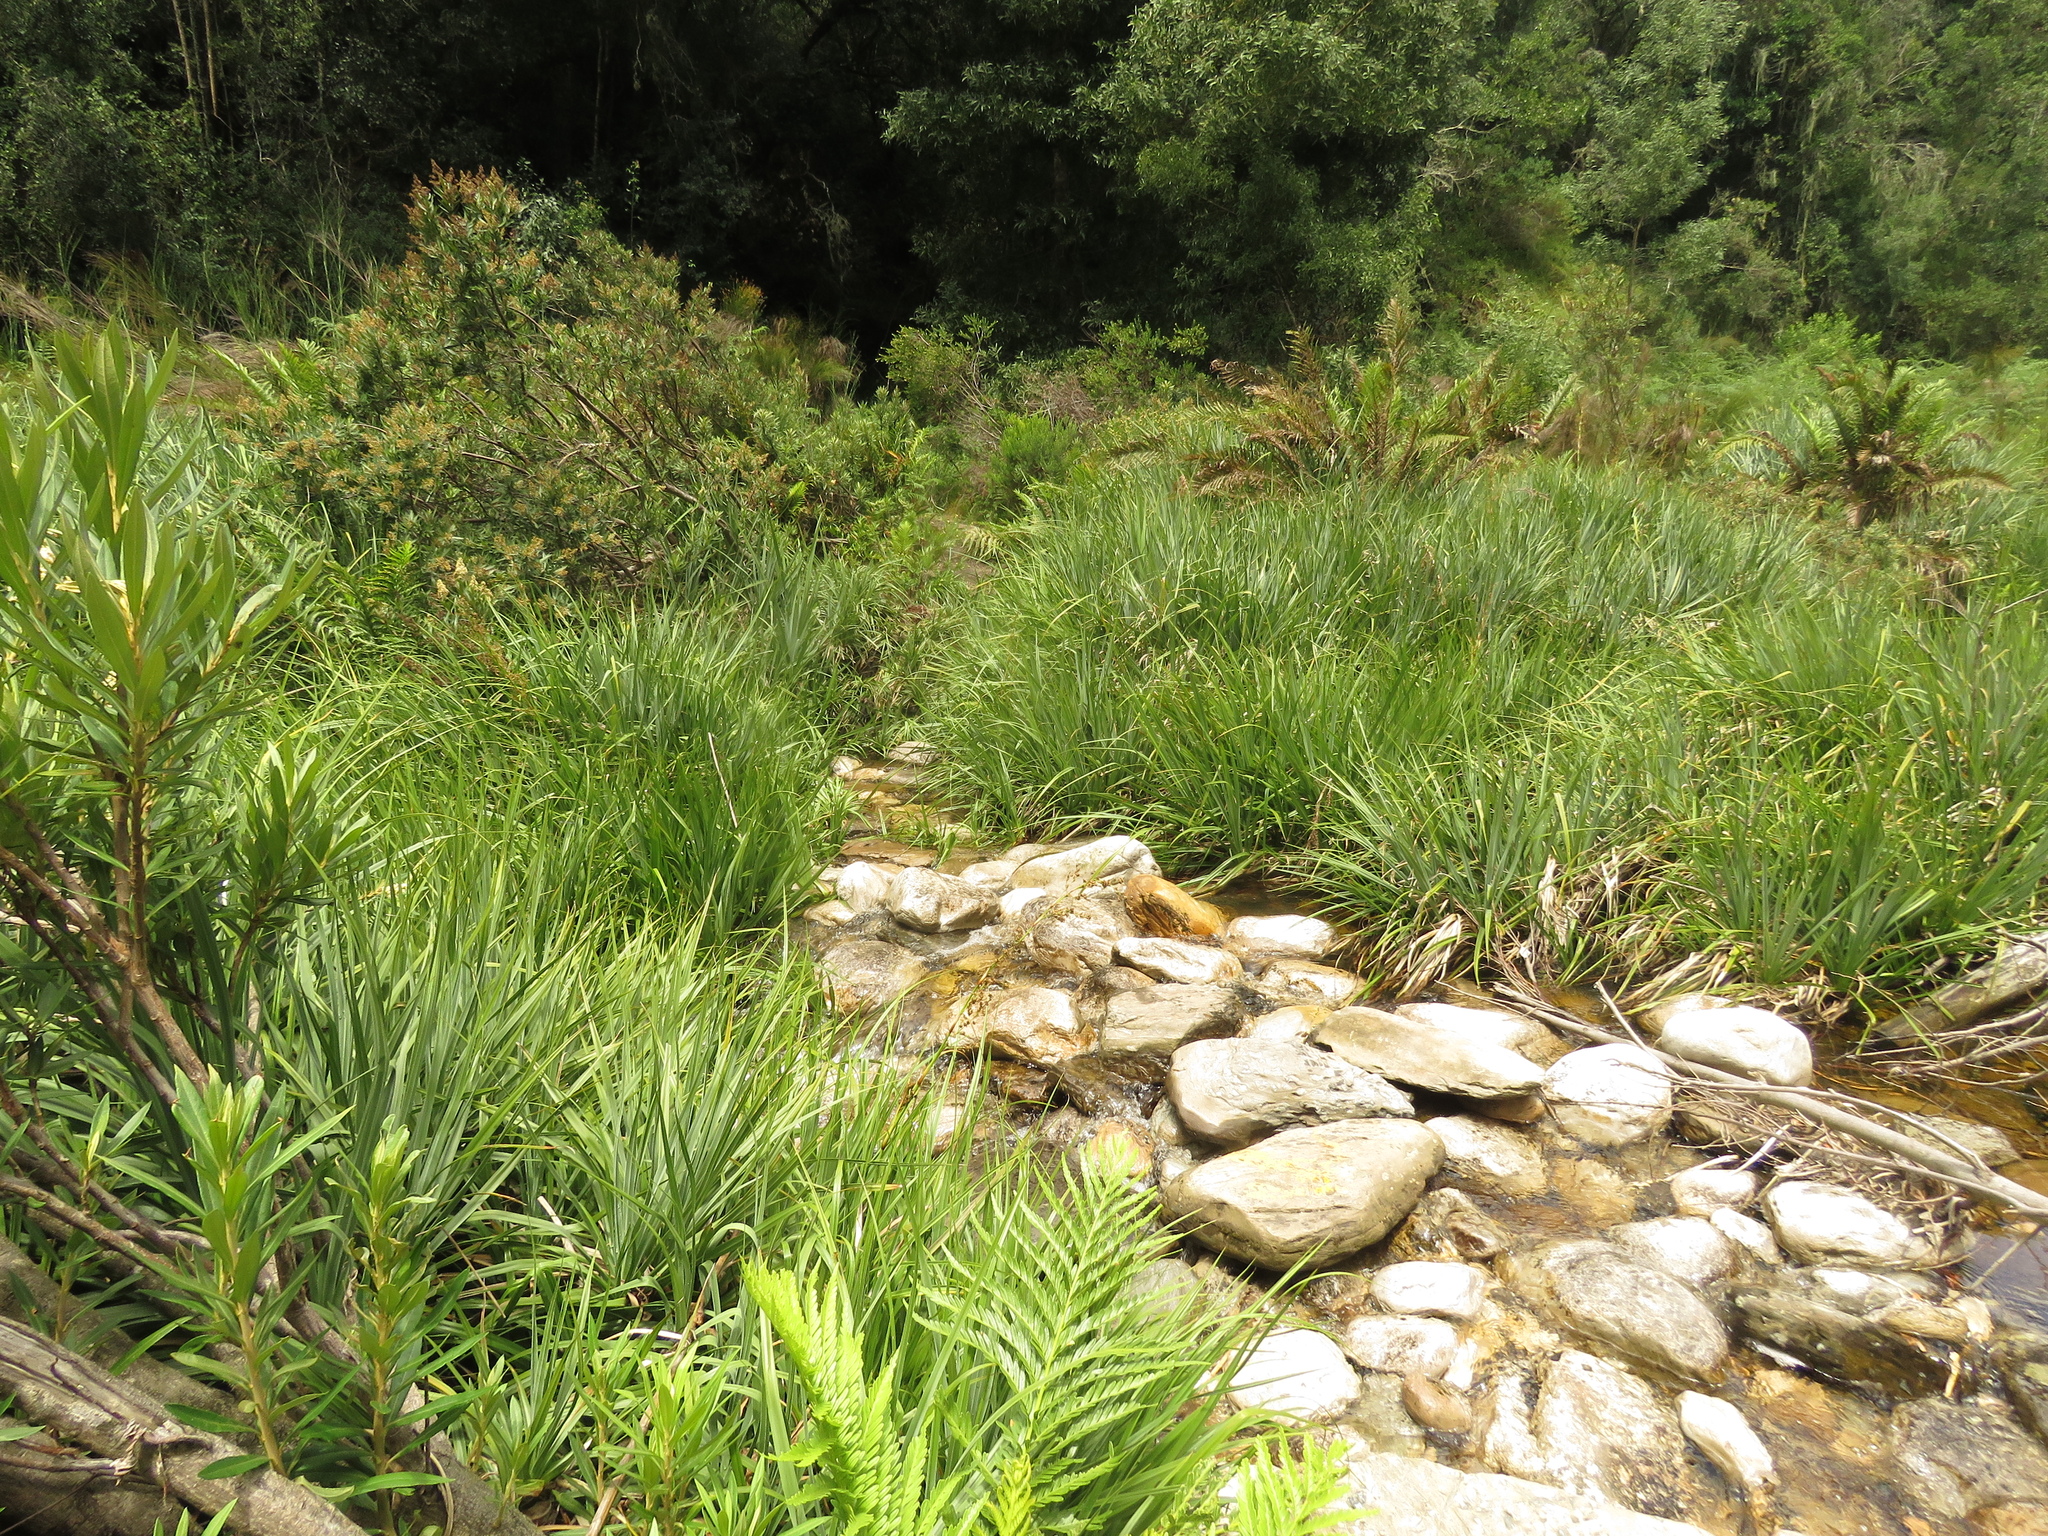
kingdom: Plantae
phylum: Tracheophyta
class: Liliopsida
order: Poales
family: Thurniaceae
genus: Prionium
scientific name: Prionium serratum
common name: Palmiet
